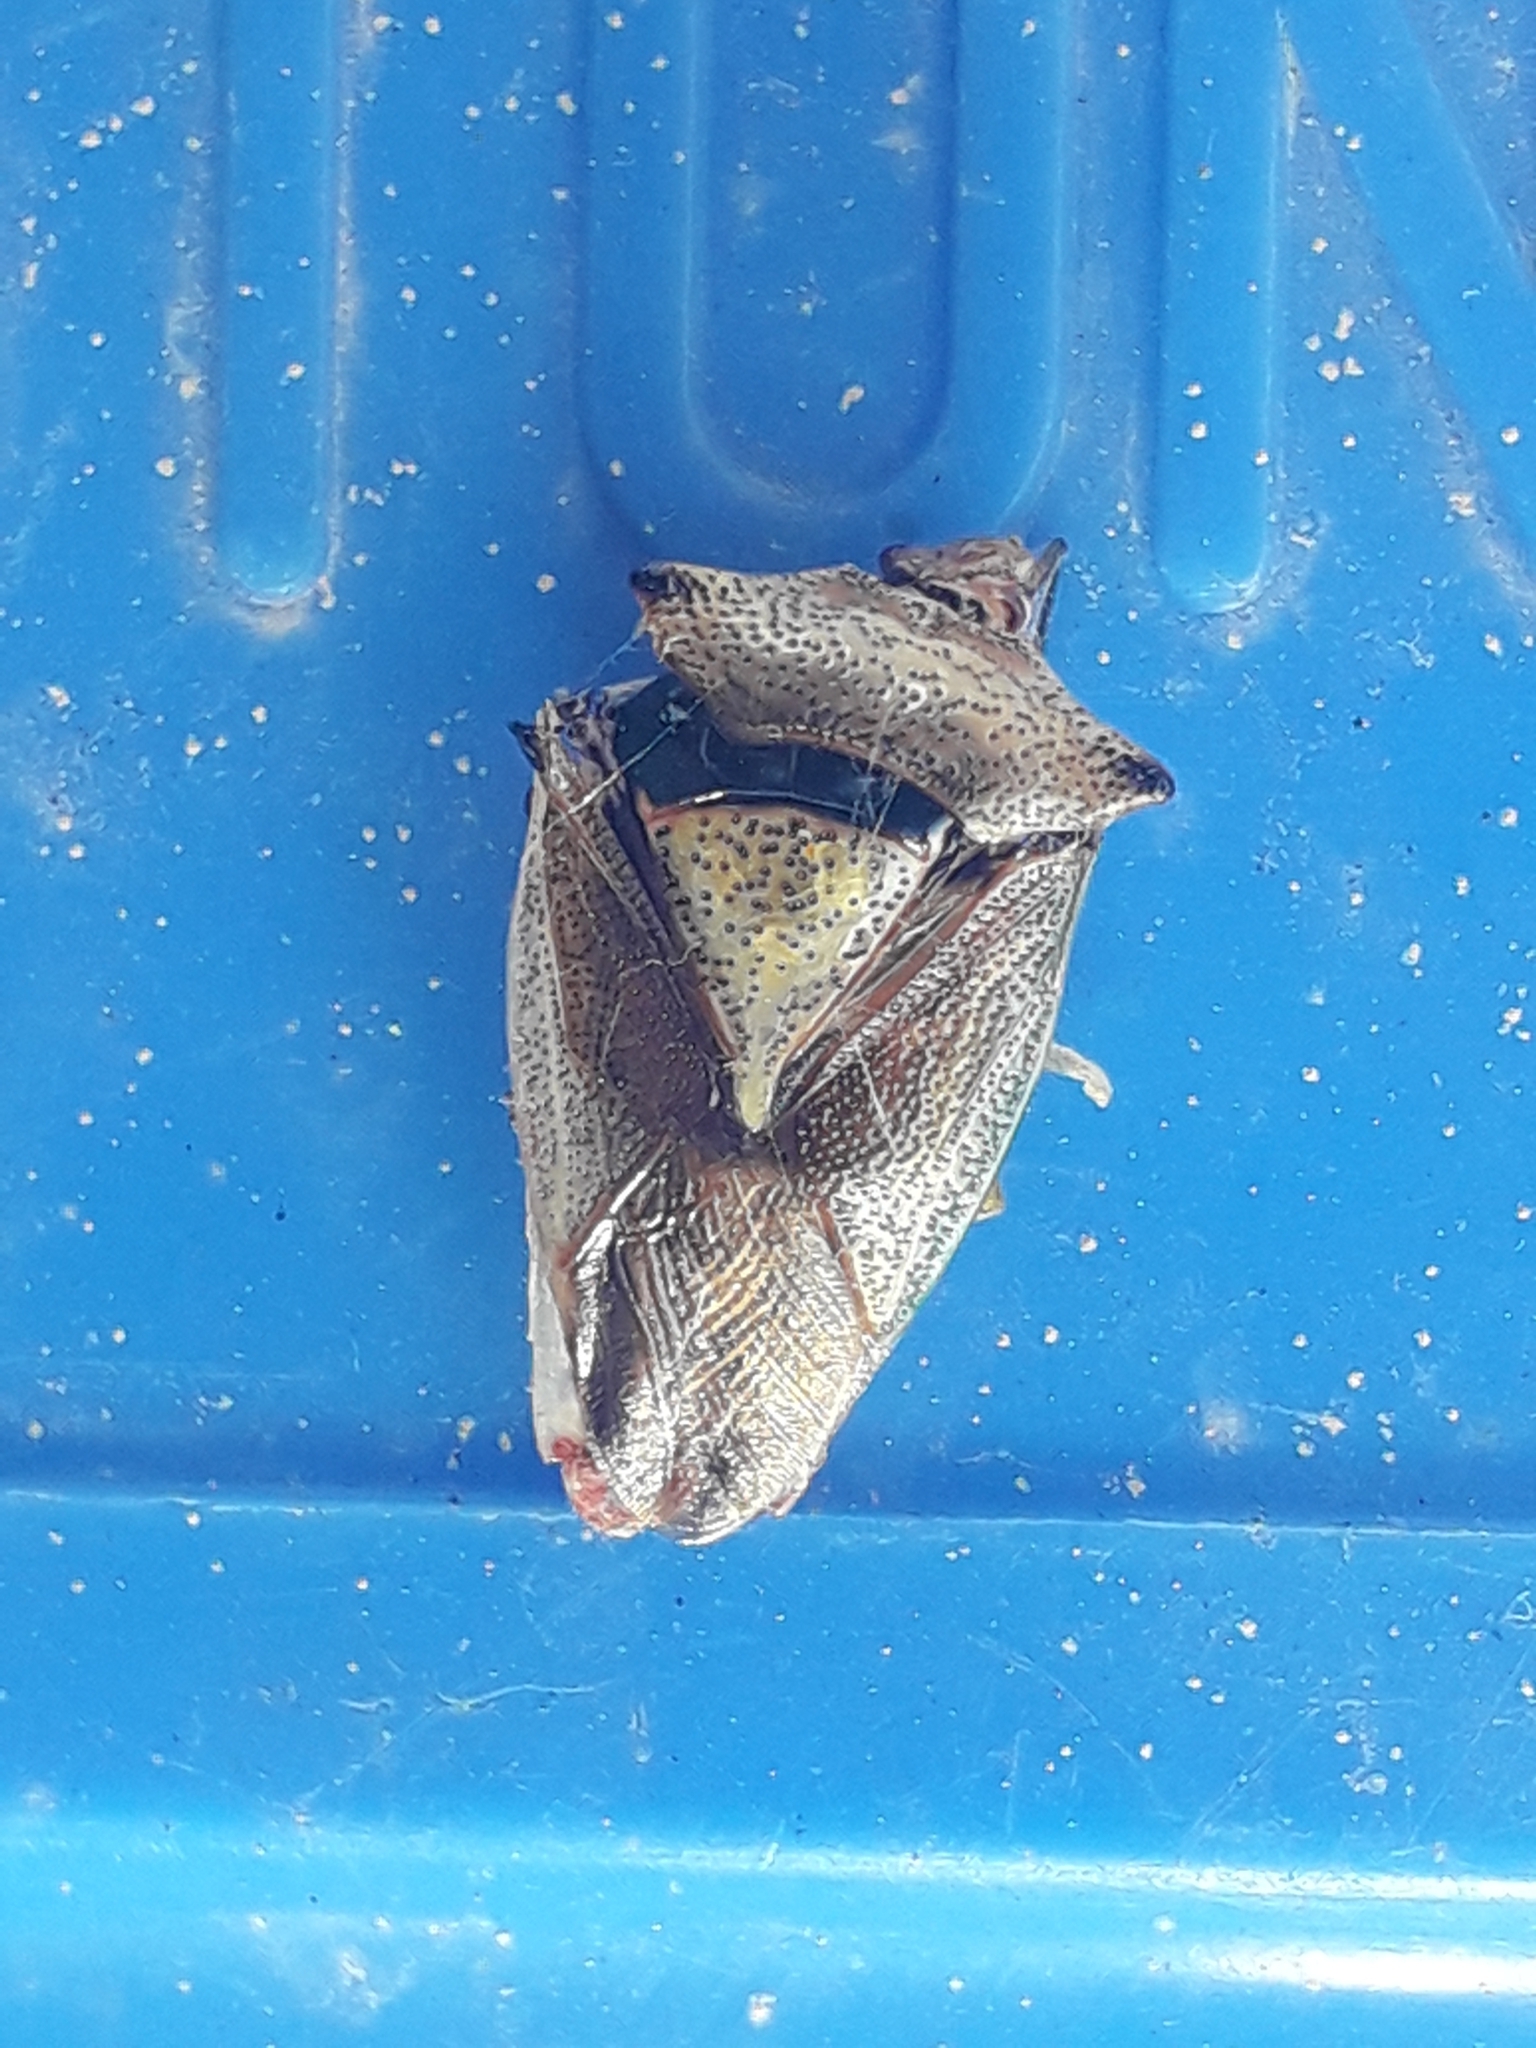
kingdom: Animalia
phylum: Arthropoda
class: Insecta
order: Hemiptera
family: Acanthosomatidae
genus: Acanthosoma
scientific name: Acanthosoma haemorrhoidale
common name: Hawthorn shieldbug
